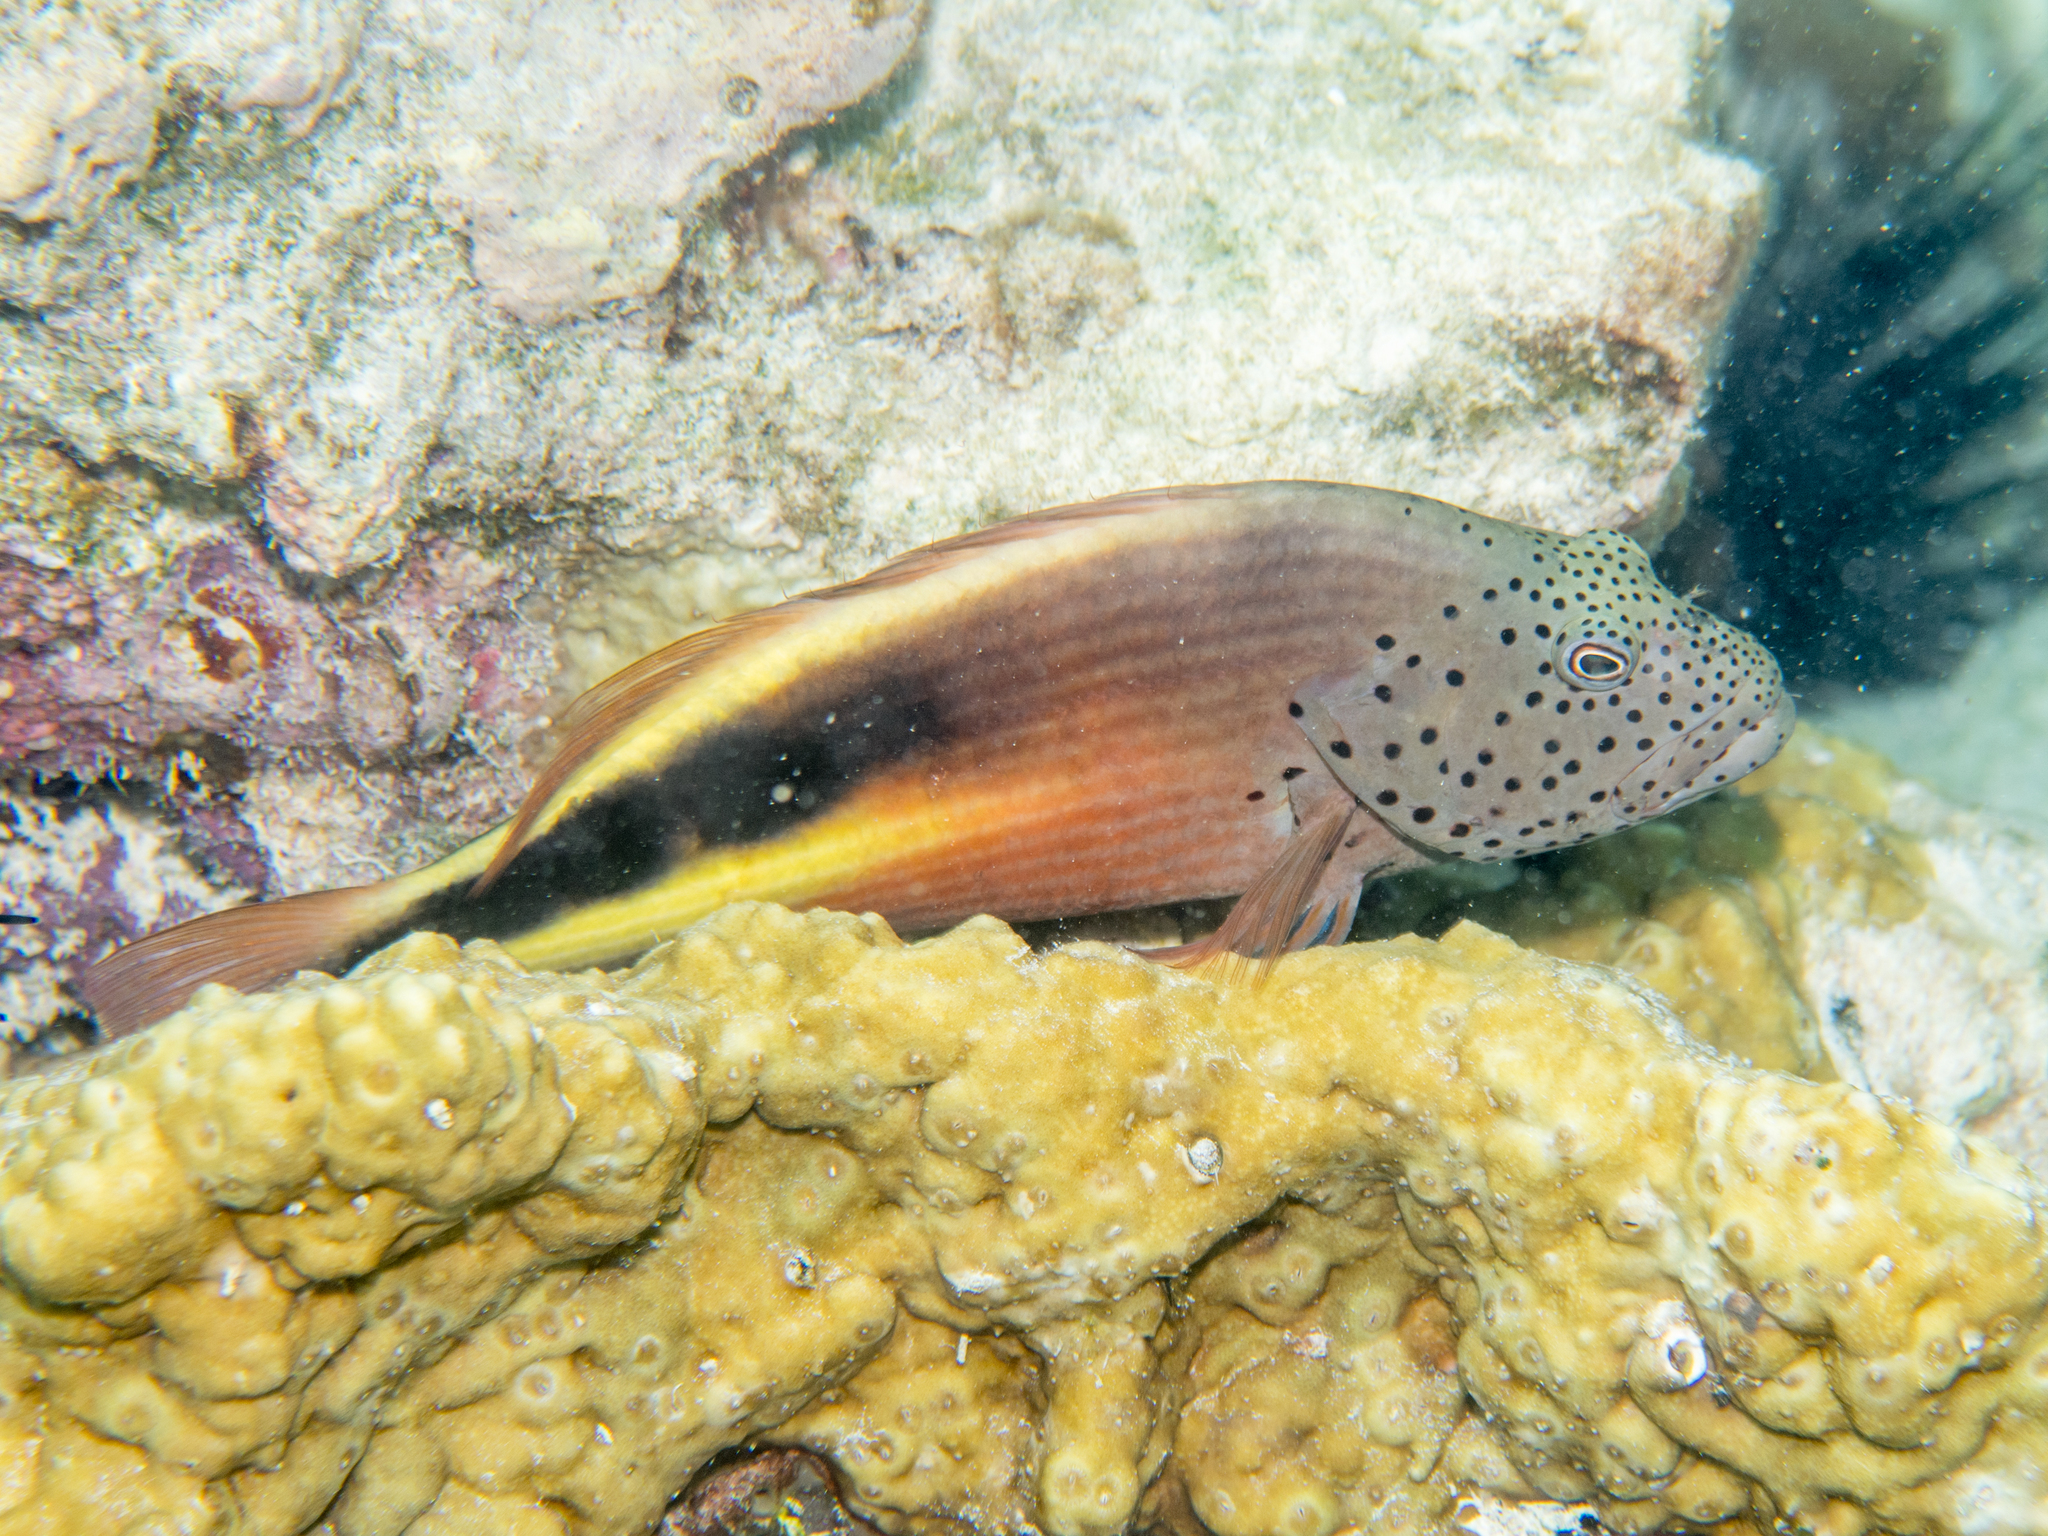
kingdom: Animalia
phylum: Chordata
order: Perciformes
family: Cirrhitidae
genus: Paracirrhites
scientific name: Paracirrhites forsteri
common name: Freckled hawkfish
